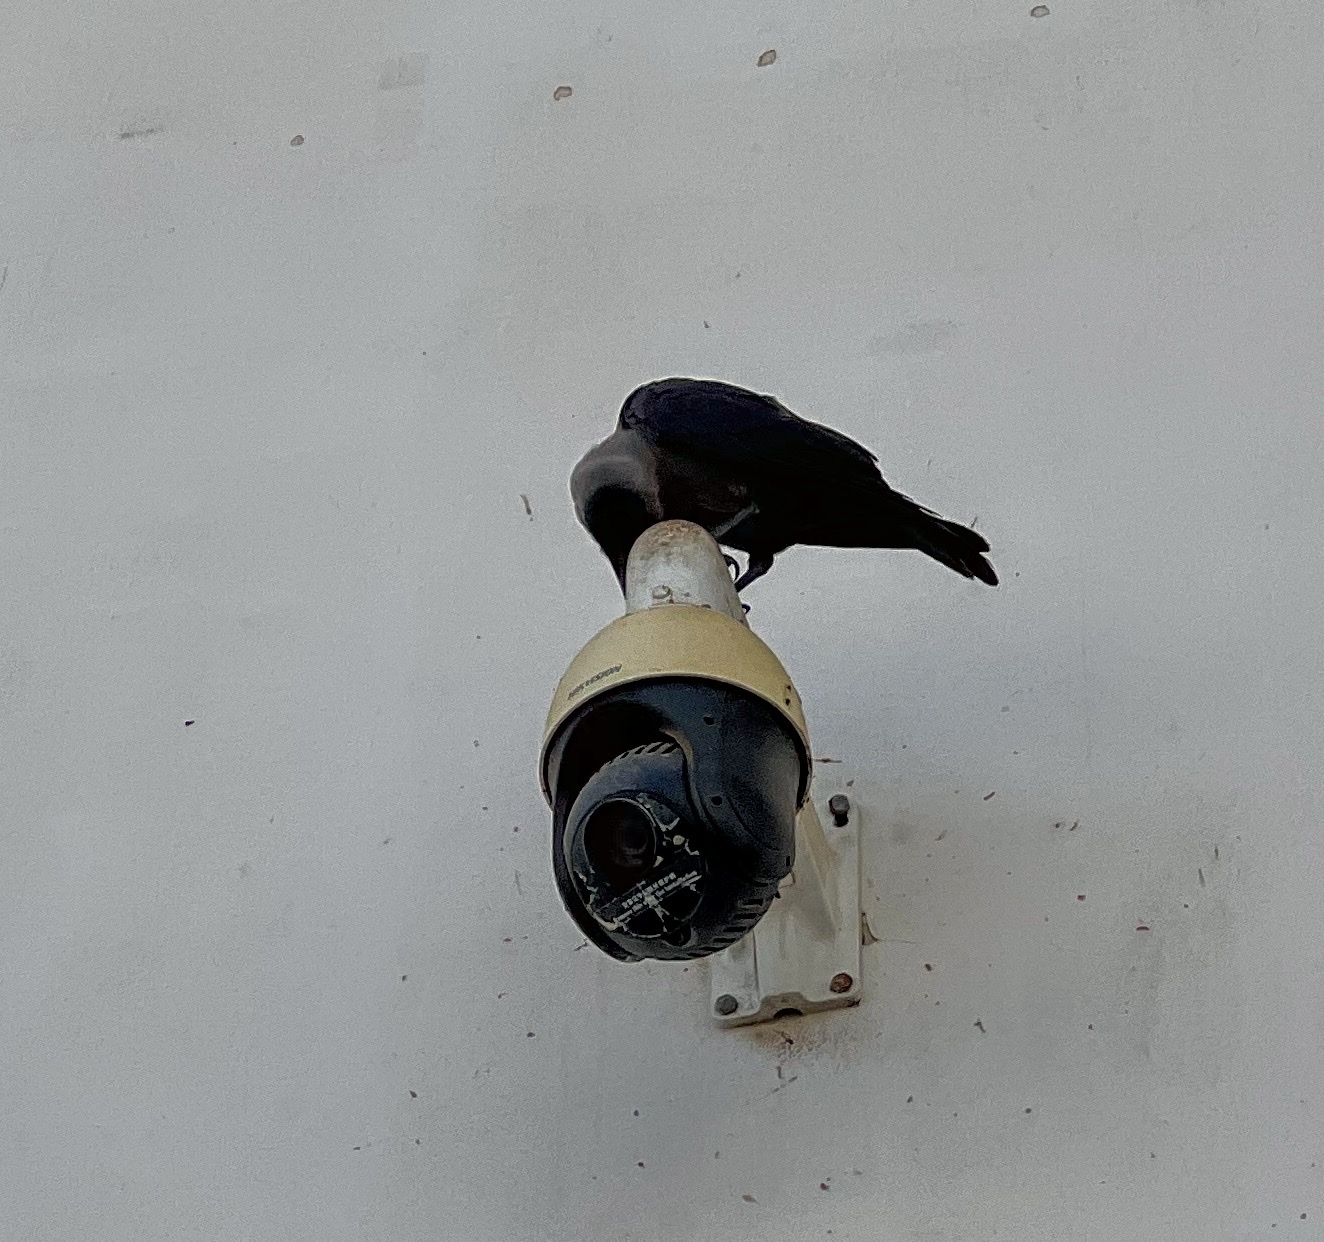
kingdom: Animalia
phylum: Chordata
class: Aves
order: Passeriformes
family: Corvidae
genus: Corvus
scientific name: Corvus splendens
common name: House crow
